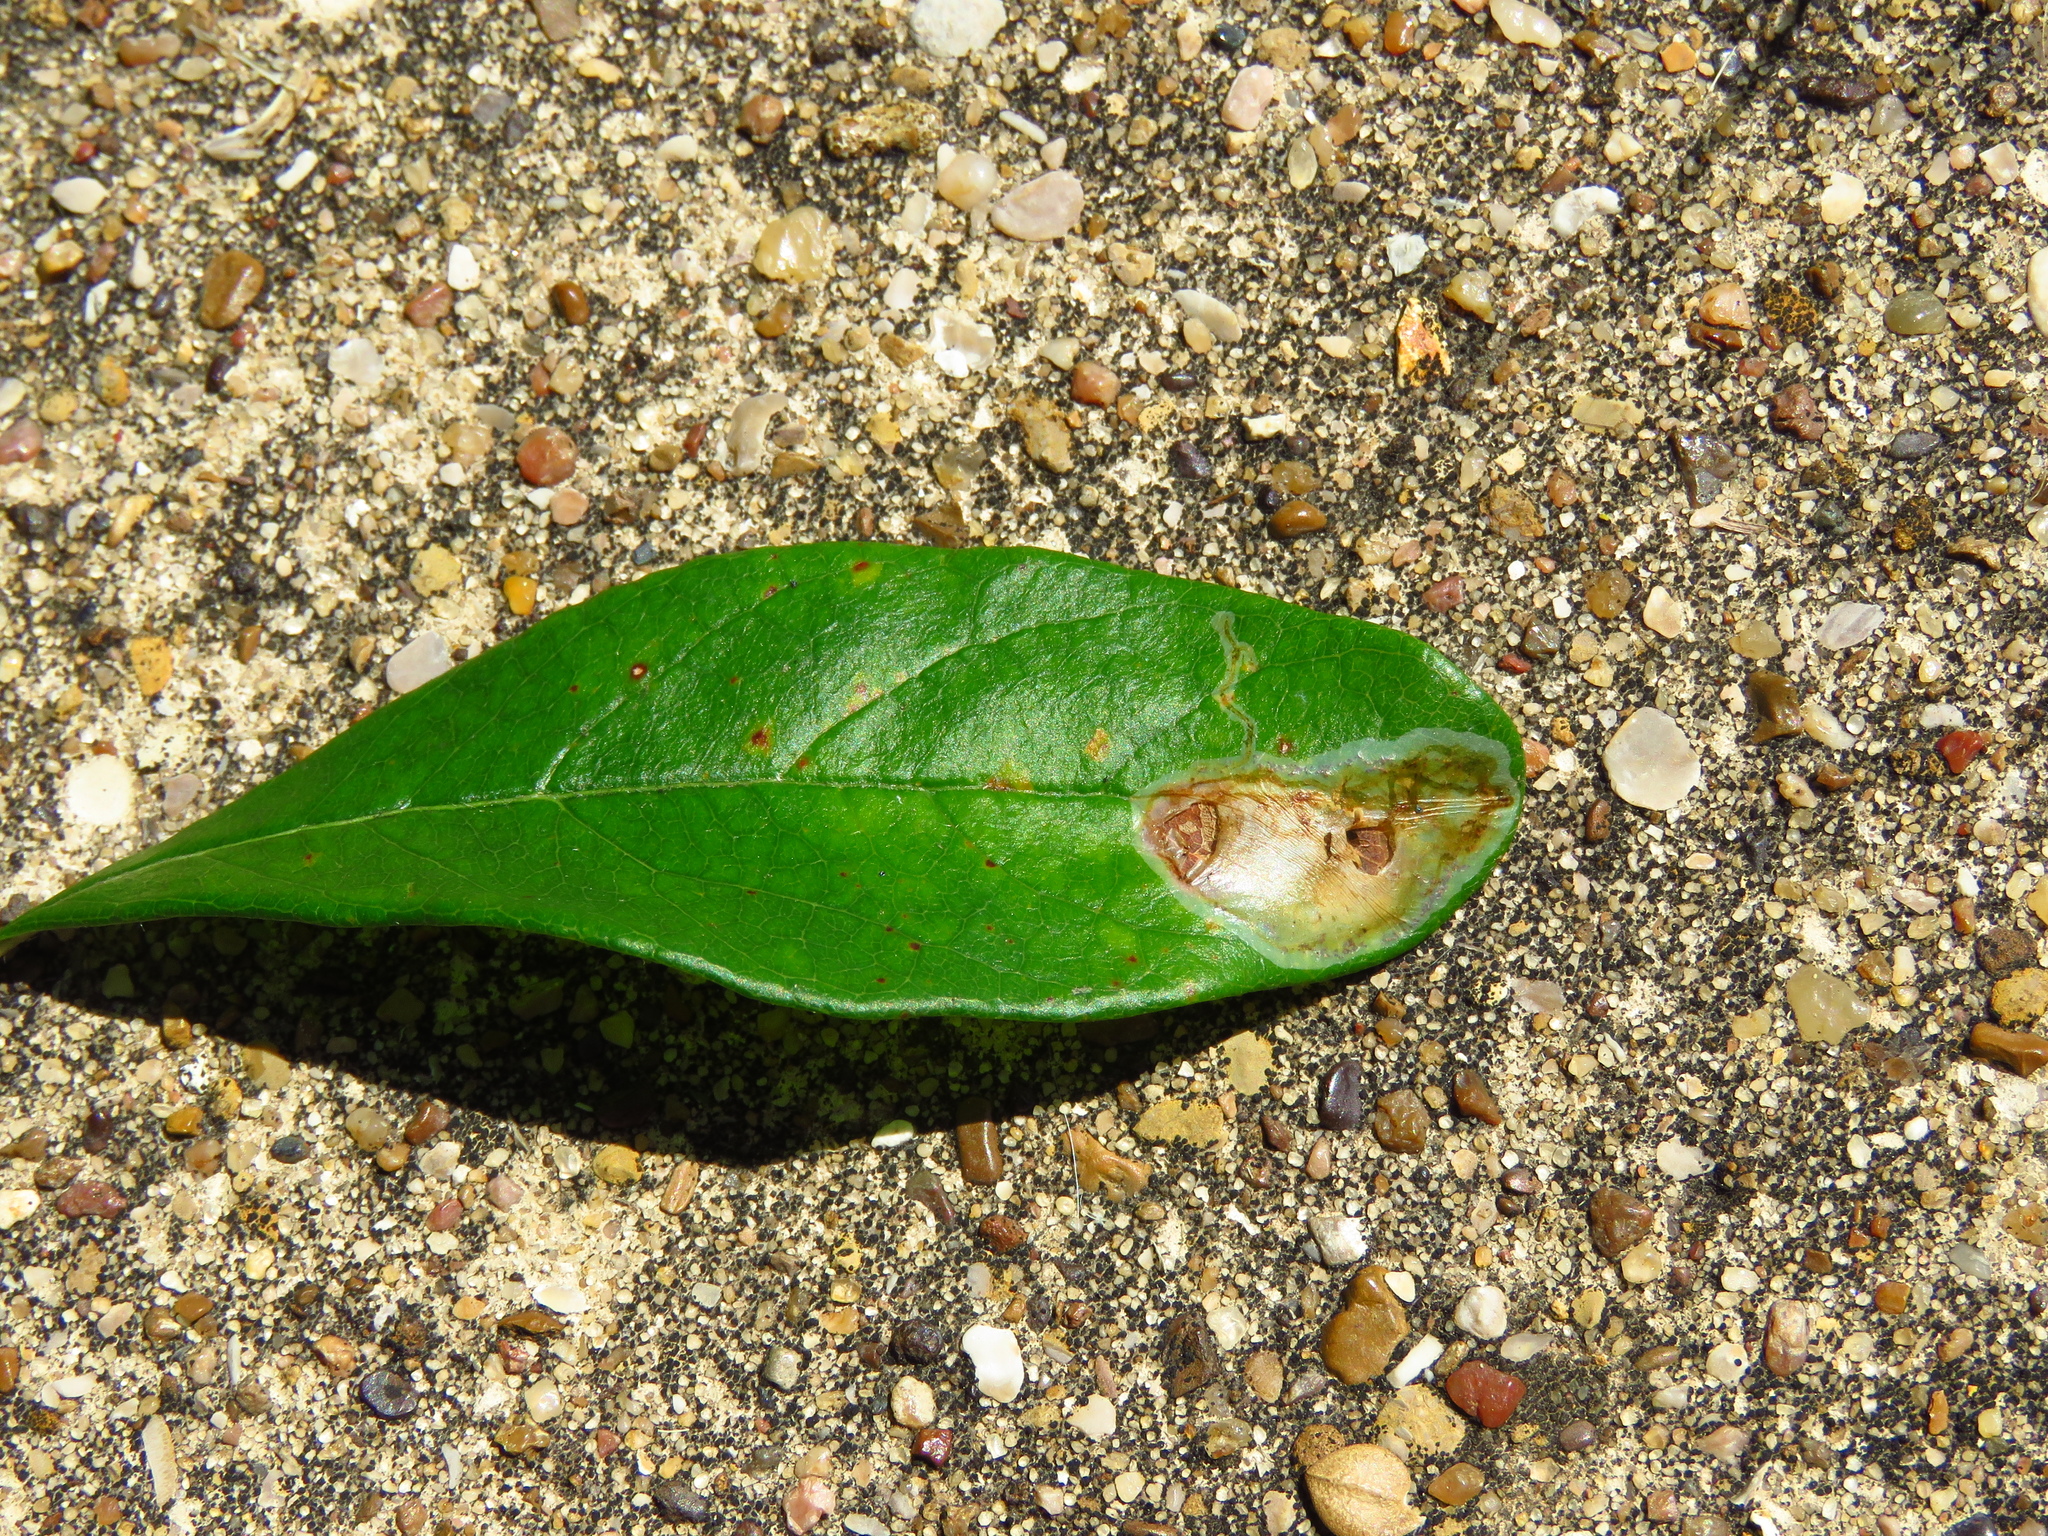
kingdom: Animalia
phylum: Arthropoda
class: Insecta
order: Lepidoptera
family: Gracillariidae
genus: Parectopa
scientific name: Parectopa bumeliella
